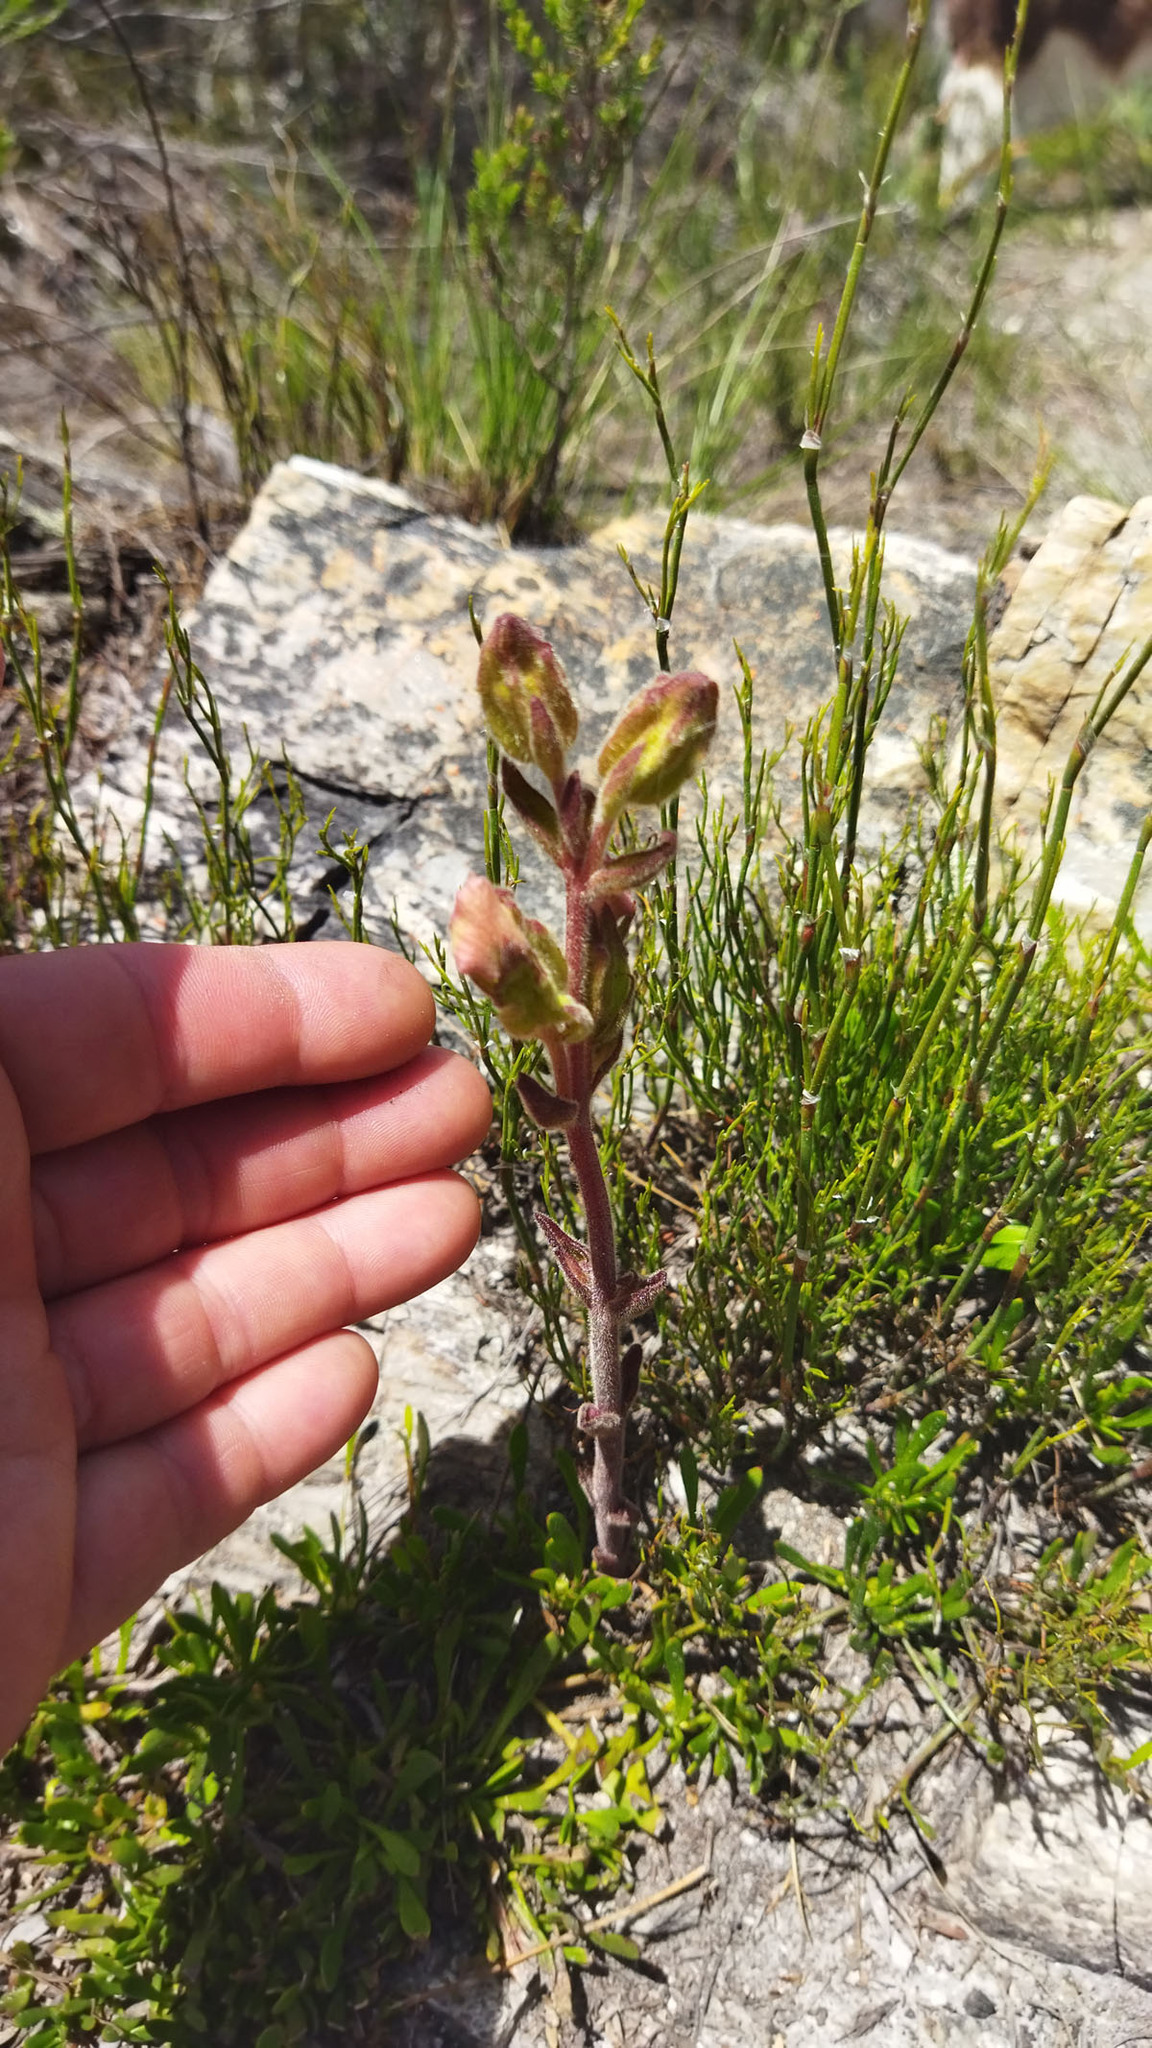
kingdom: Plantae
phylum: Tracheophyta
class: Magnoliopsida
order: Lamiales
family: Orobanchaceae
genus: Harveya
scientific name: Harveya capensis
